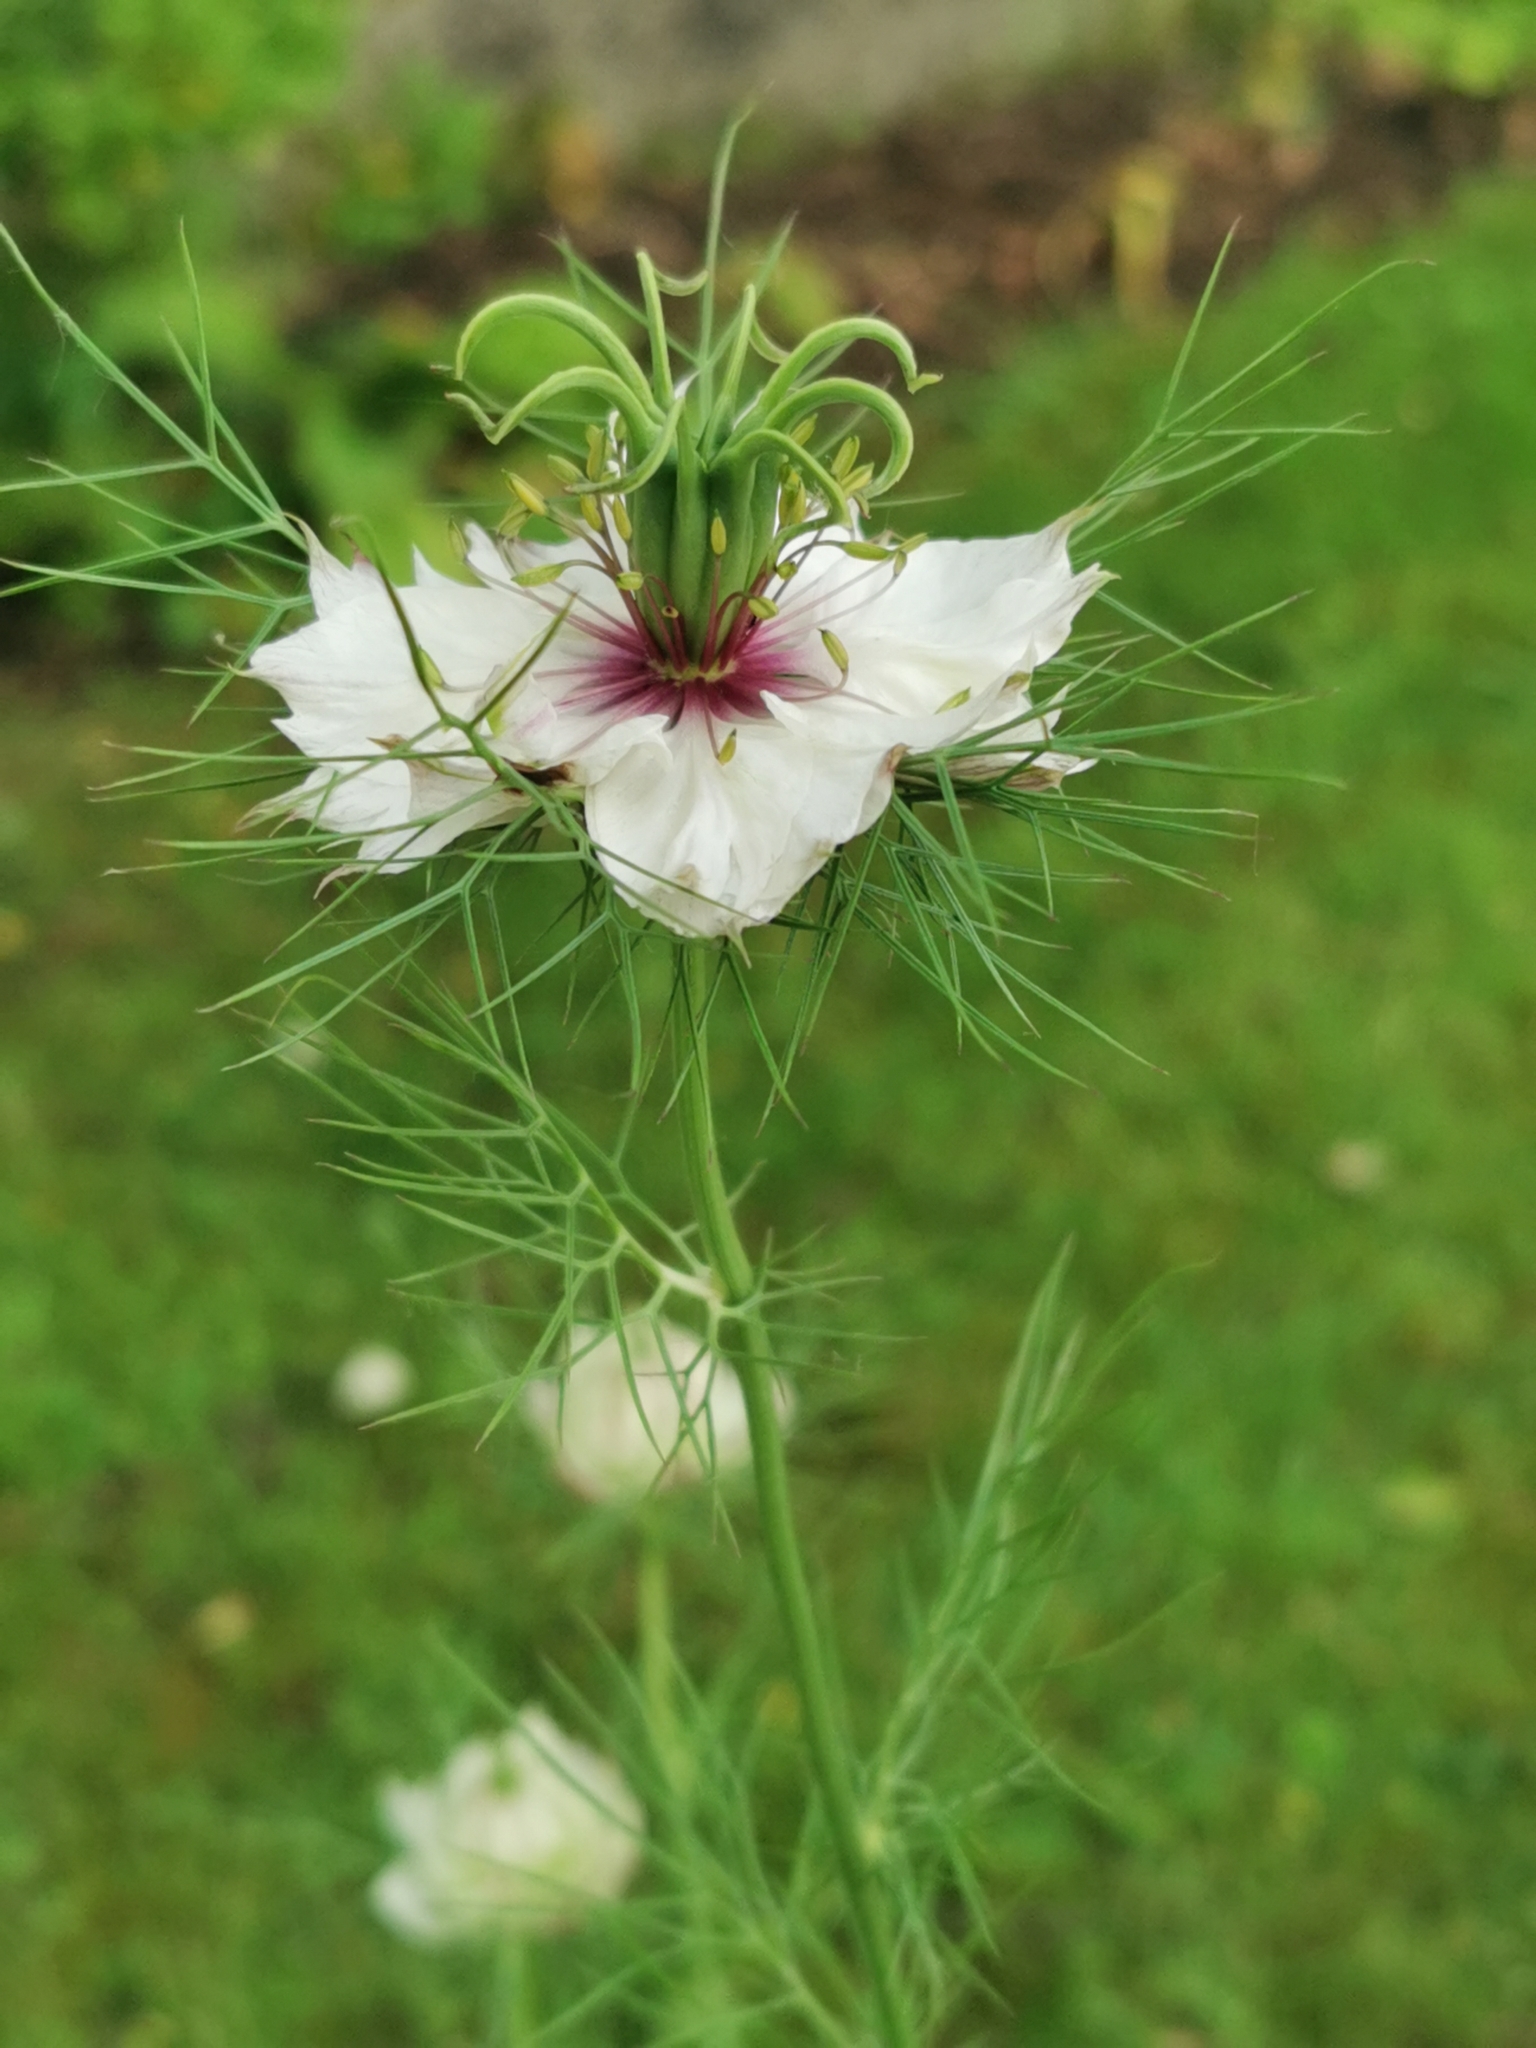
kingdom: Plantae
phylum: Tracheophyta
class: Magnoliopsida
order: Ranunculales
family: Ranunculaceae
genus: Nigella
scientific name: Nigella damascena
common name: Love-in-a-mist
